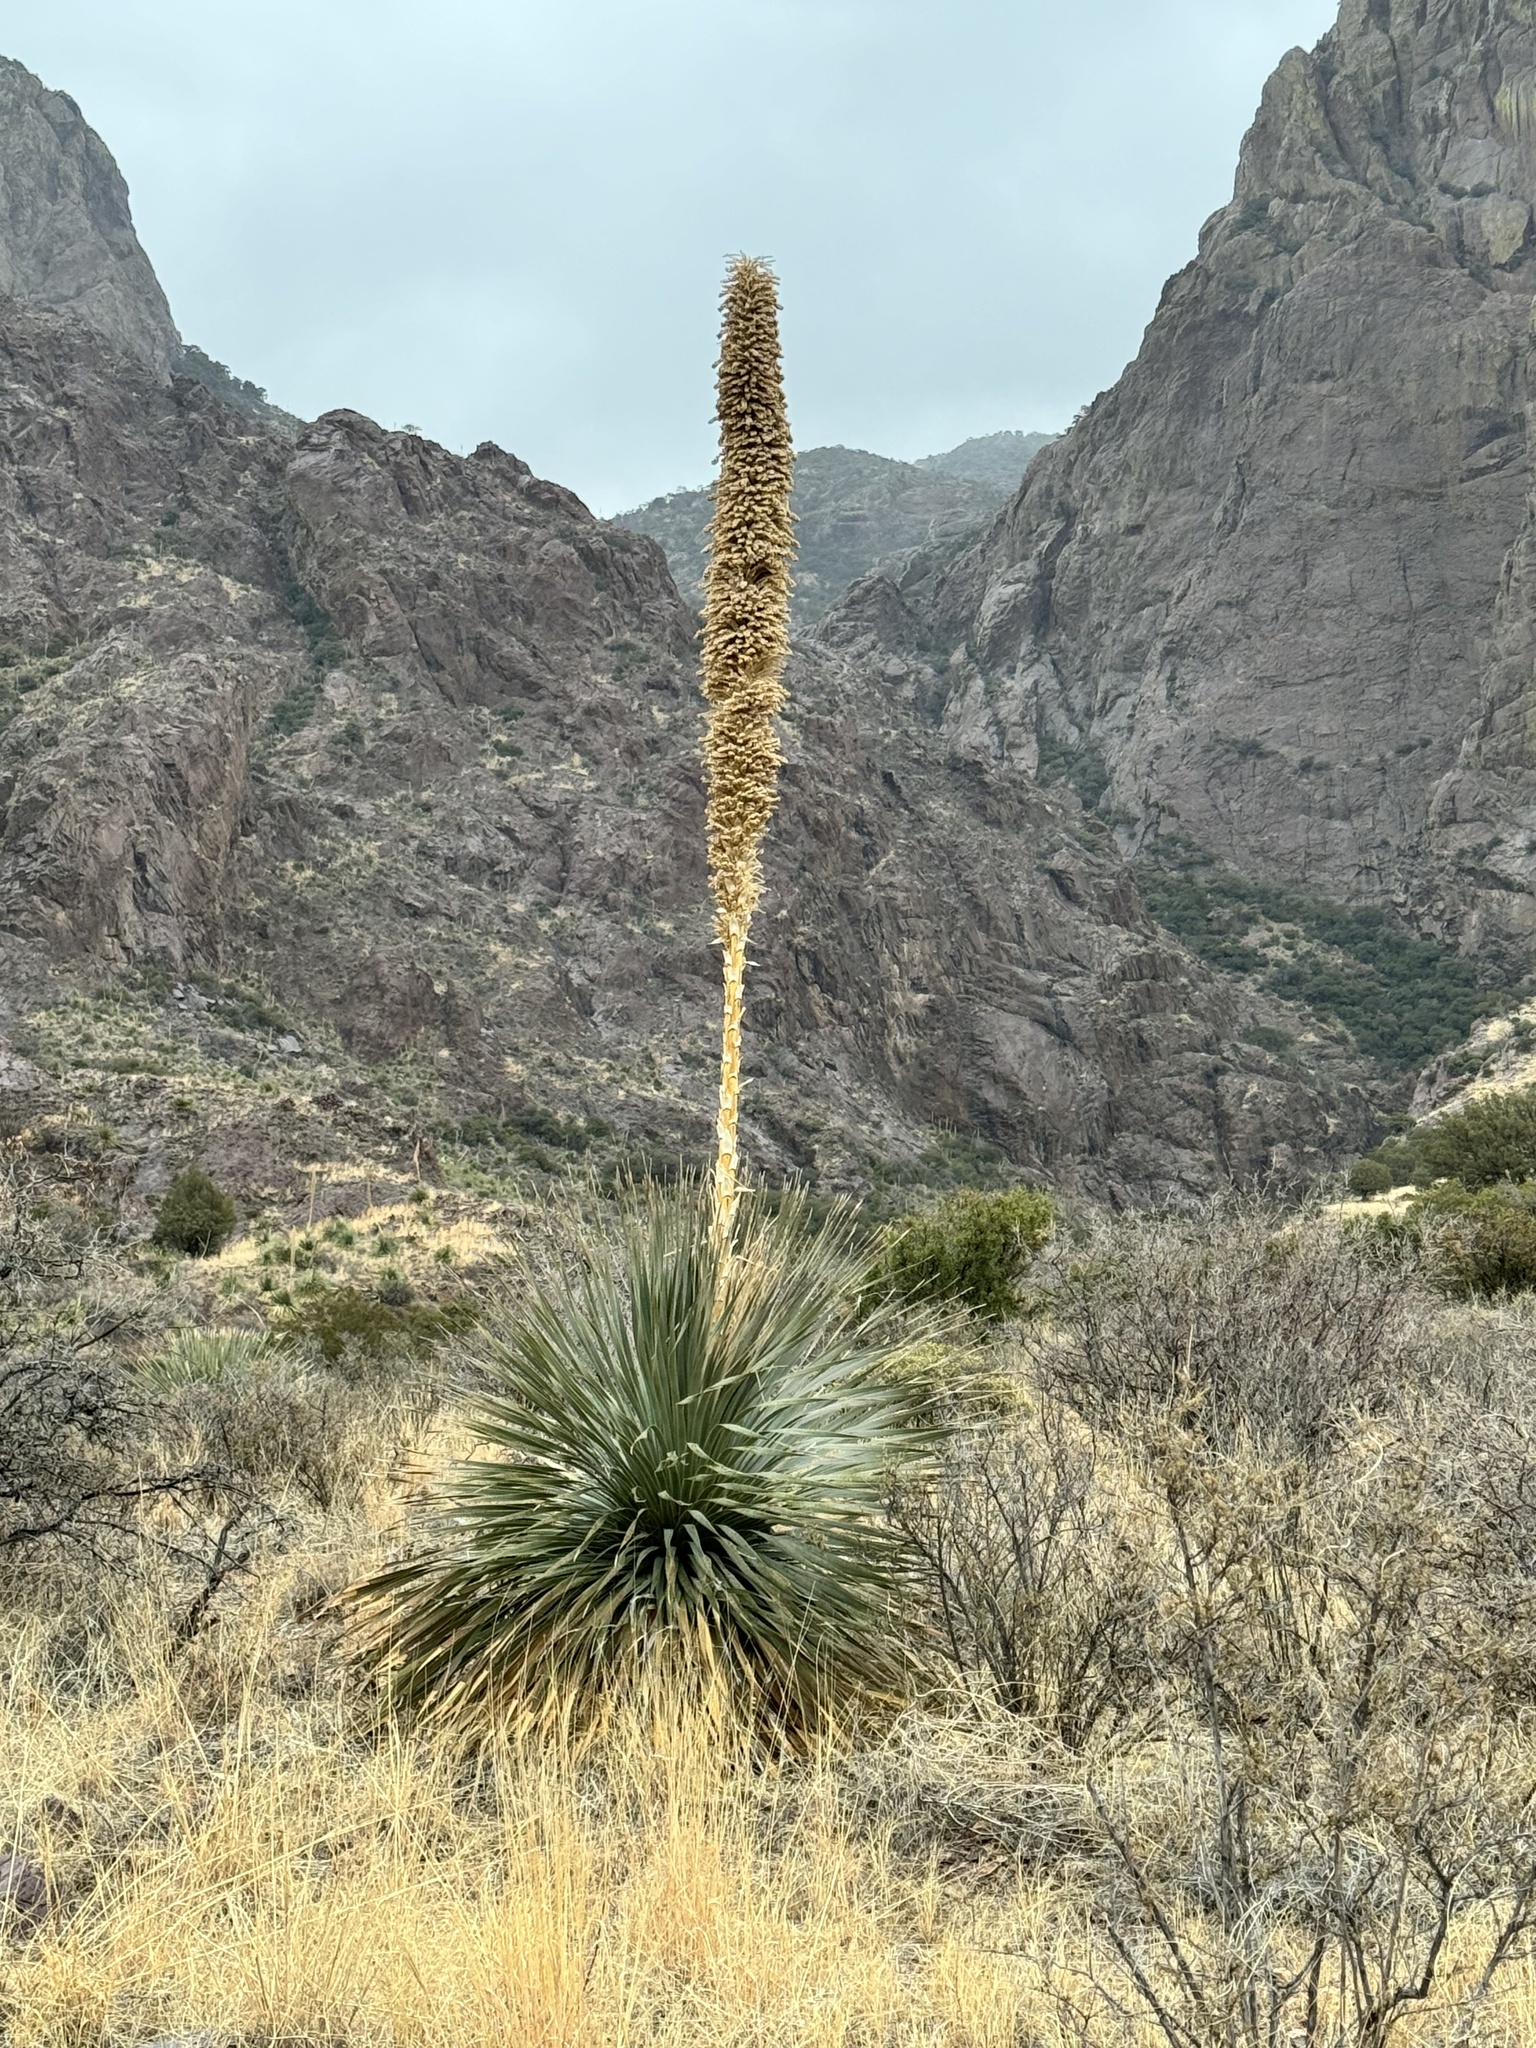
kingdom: Plantae
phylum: Tracheophyta
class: Liliopsida
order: Asparagales
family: Asparagaceae
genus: Dasylirion
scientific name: Dasylirion wheeleri
